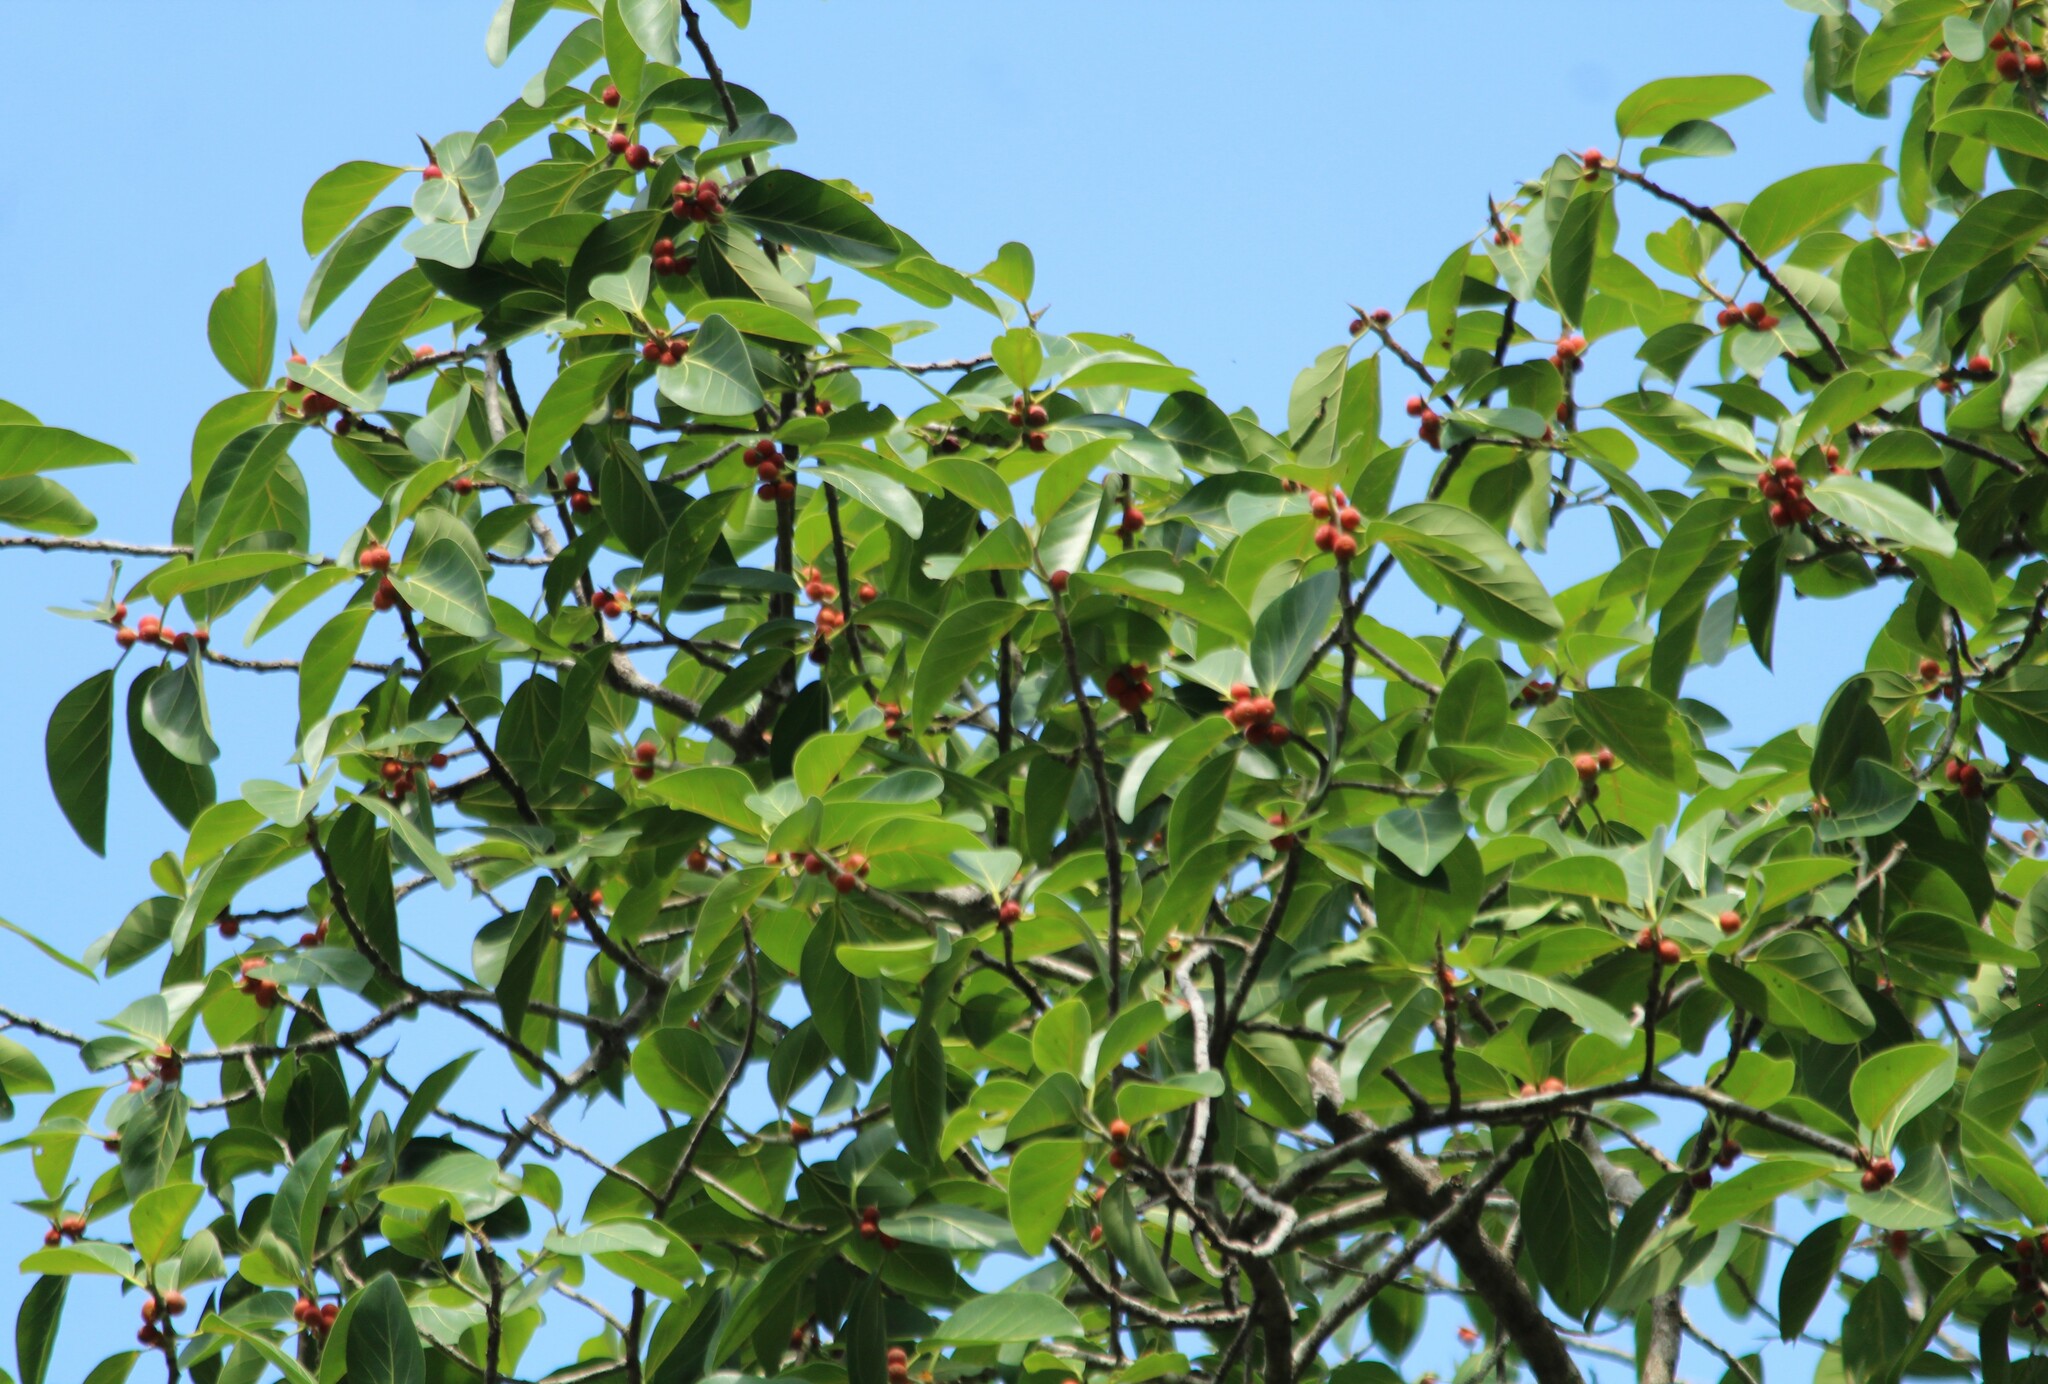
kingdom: Plantae
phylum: Tracheophyta
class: Magnoliopsida
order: Rosales
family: Moraceae
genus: Ficus
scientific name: Ficus benghalensis
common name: Indian banyan
